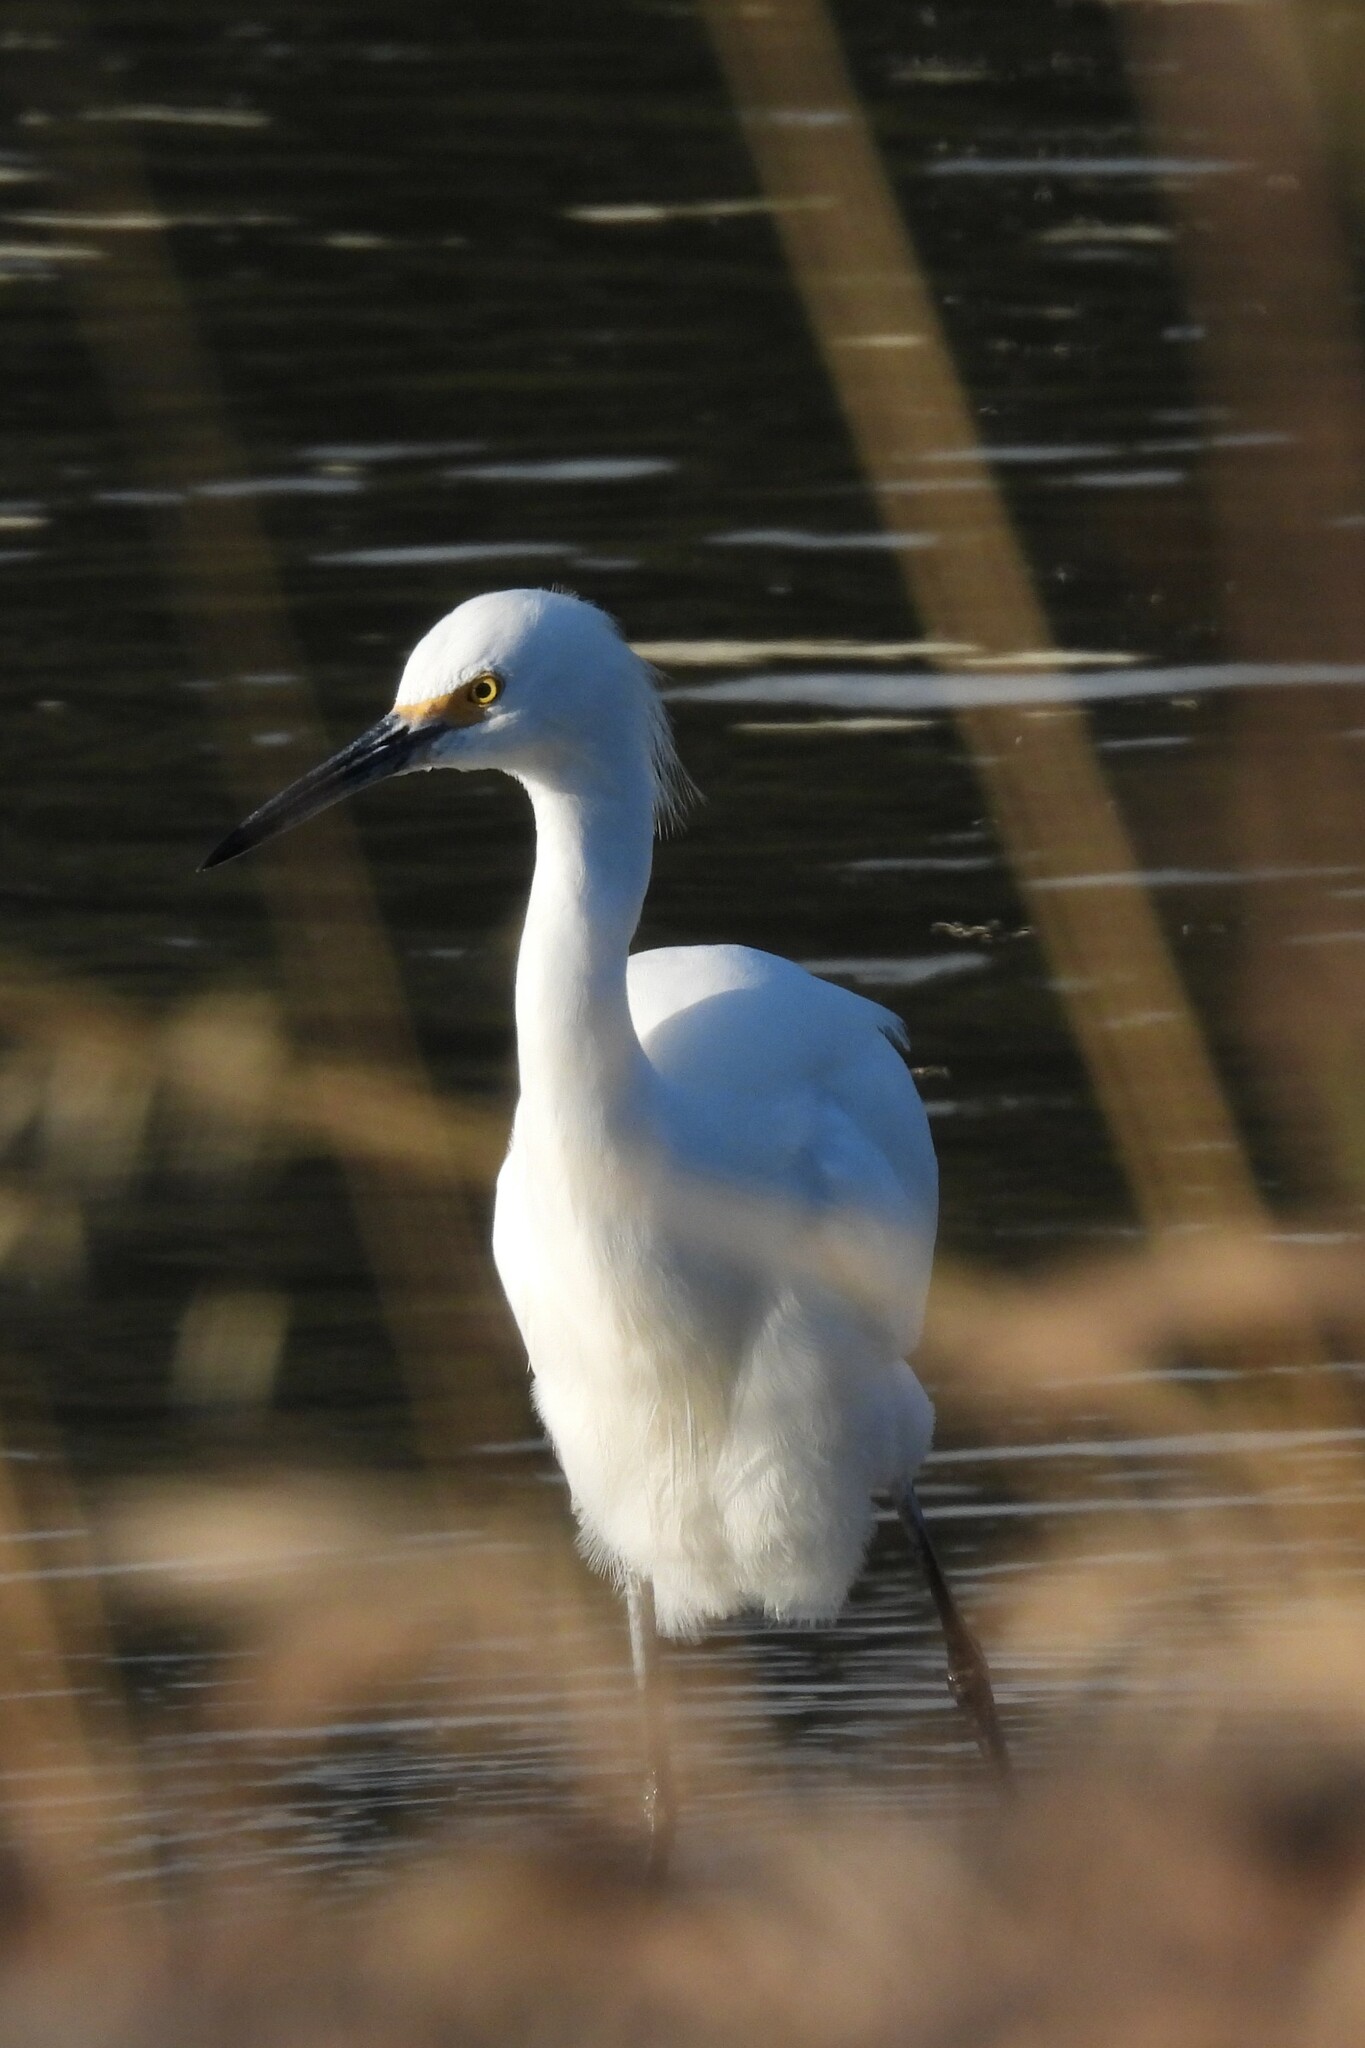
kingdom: Animalia
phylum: Chordata
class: Aves
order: Pelecaniformes
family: Ardeidae
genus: Egretta
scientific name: Egretta thula
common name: Snowy egret
